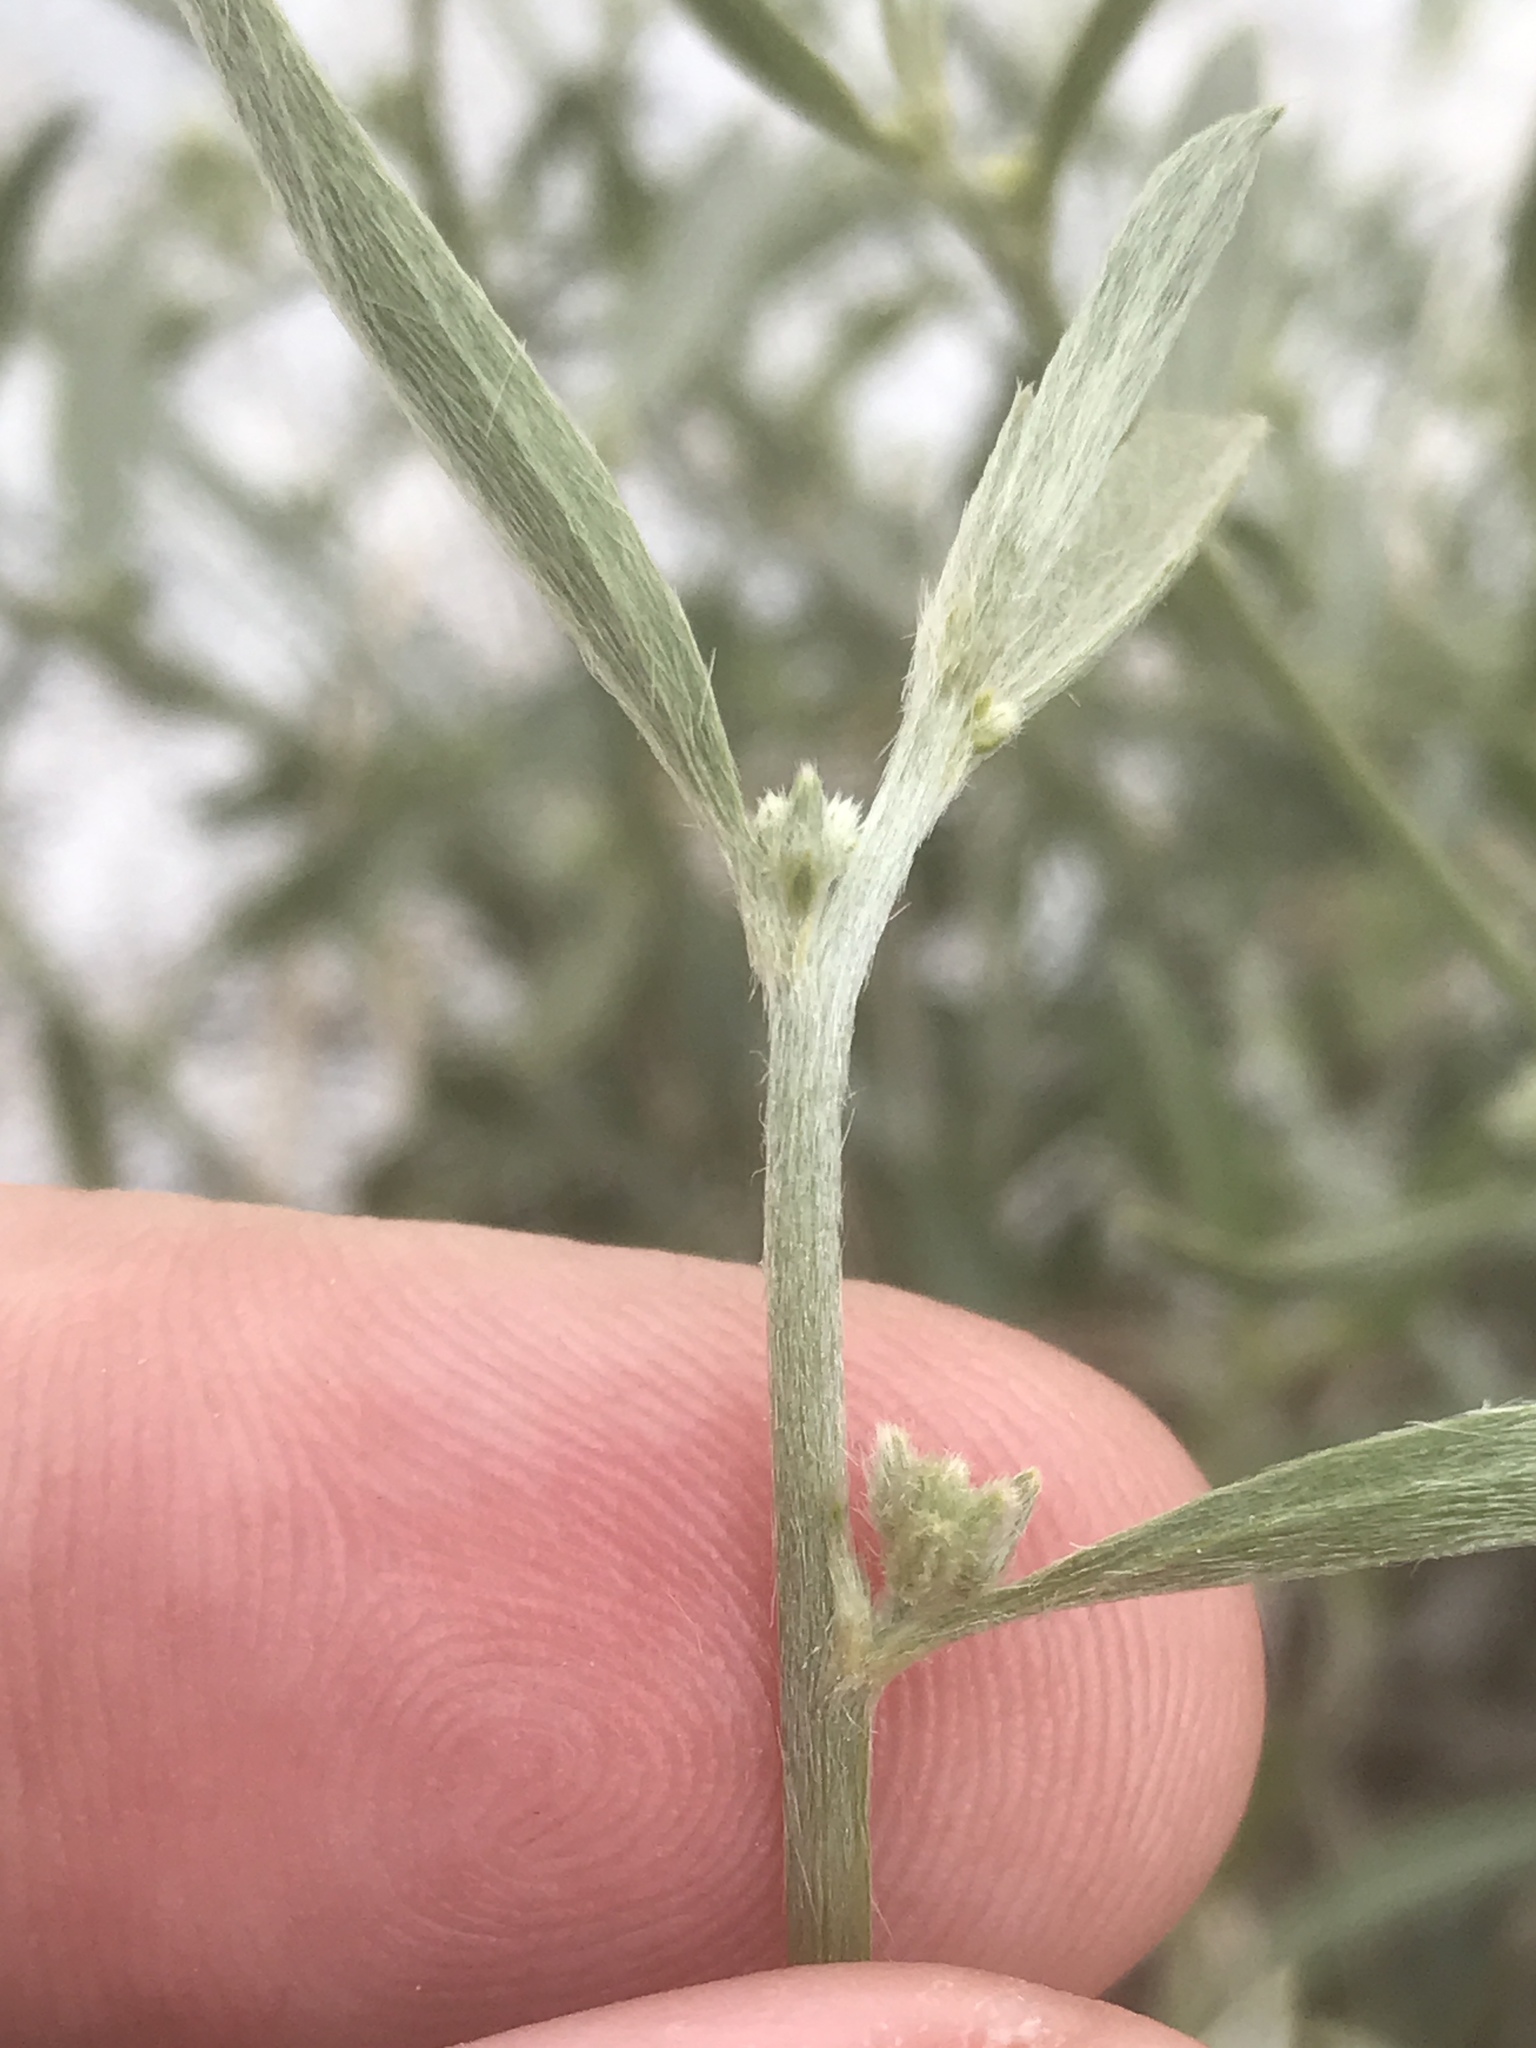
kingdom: Plantae
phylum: Tracheophyta
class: Magnoliopsida
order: Malpighiales
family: Euphorbiaceae
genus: Ditaxis
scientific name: Ditaxis lanceolata
